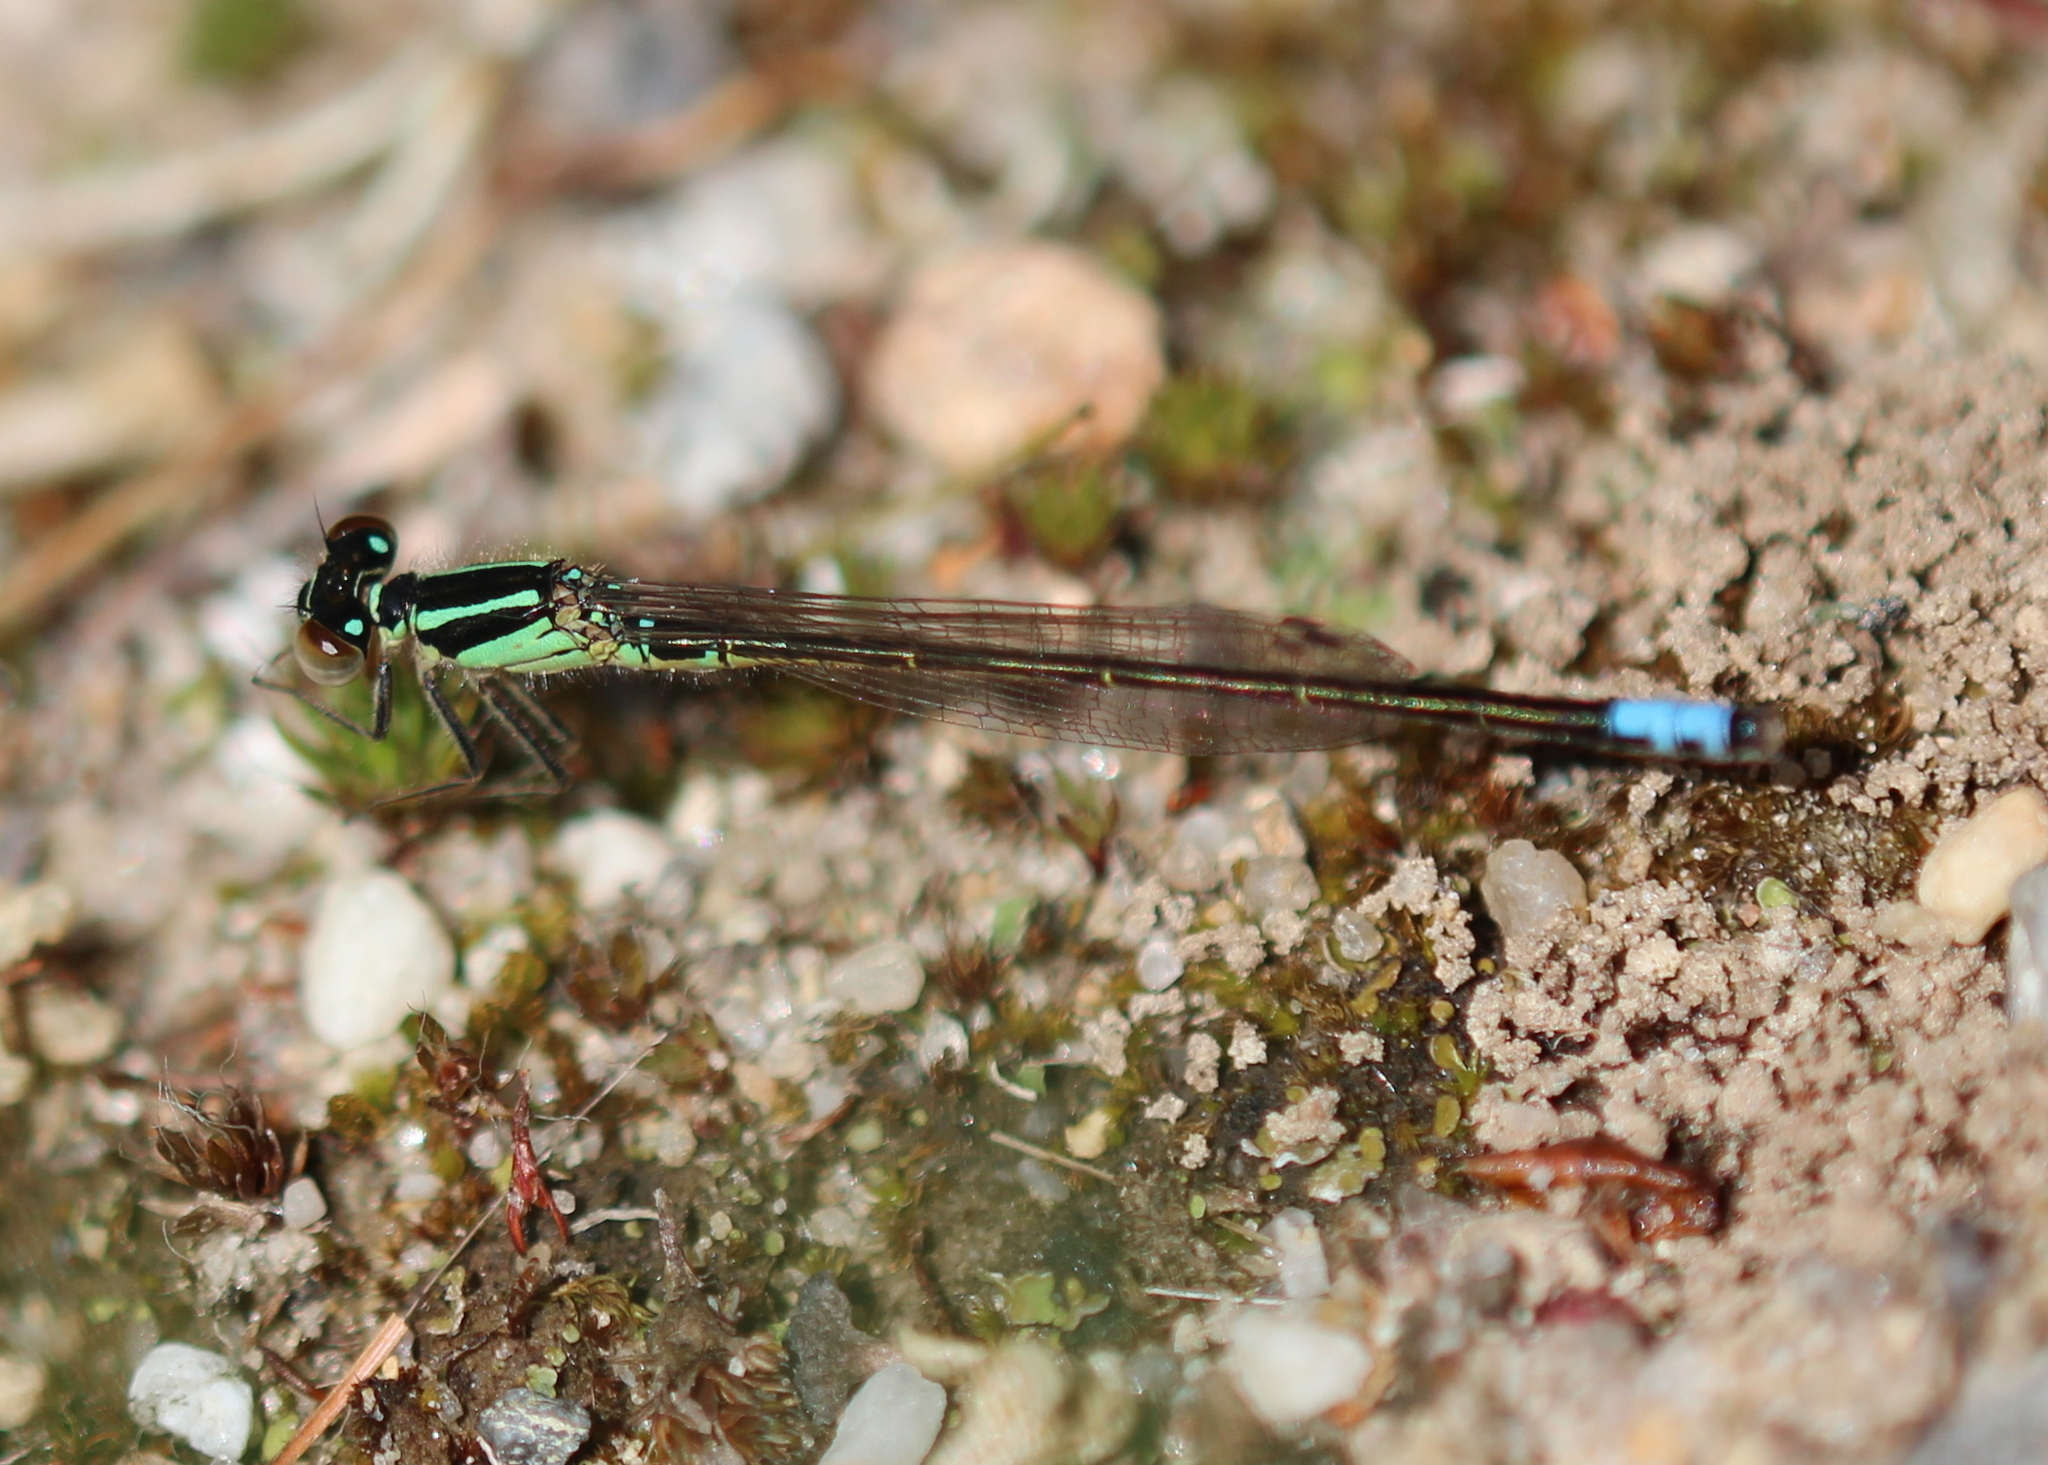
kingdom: Animalia
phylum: Arthropoda
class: Insecta
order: Odonata
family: Coenagrionidae
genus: Ischnura
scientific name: Ischnura verticalis
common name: Eastern forktail
